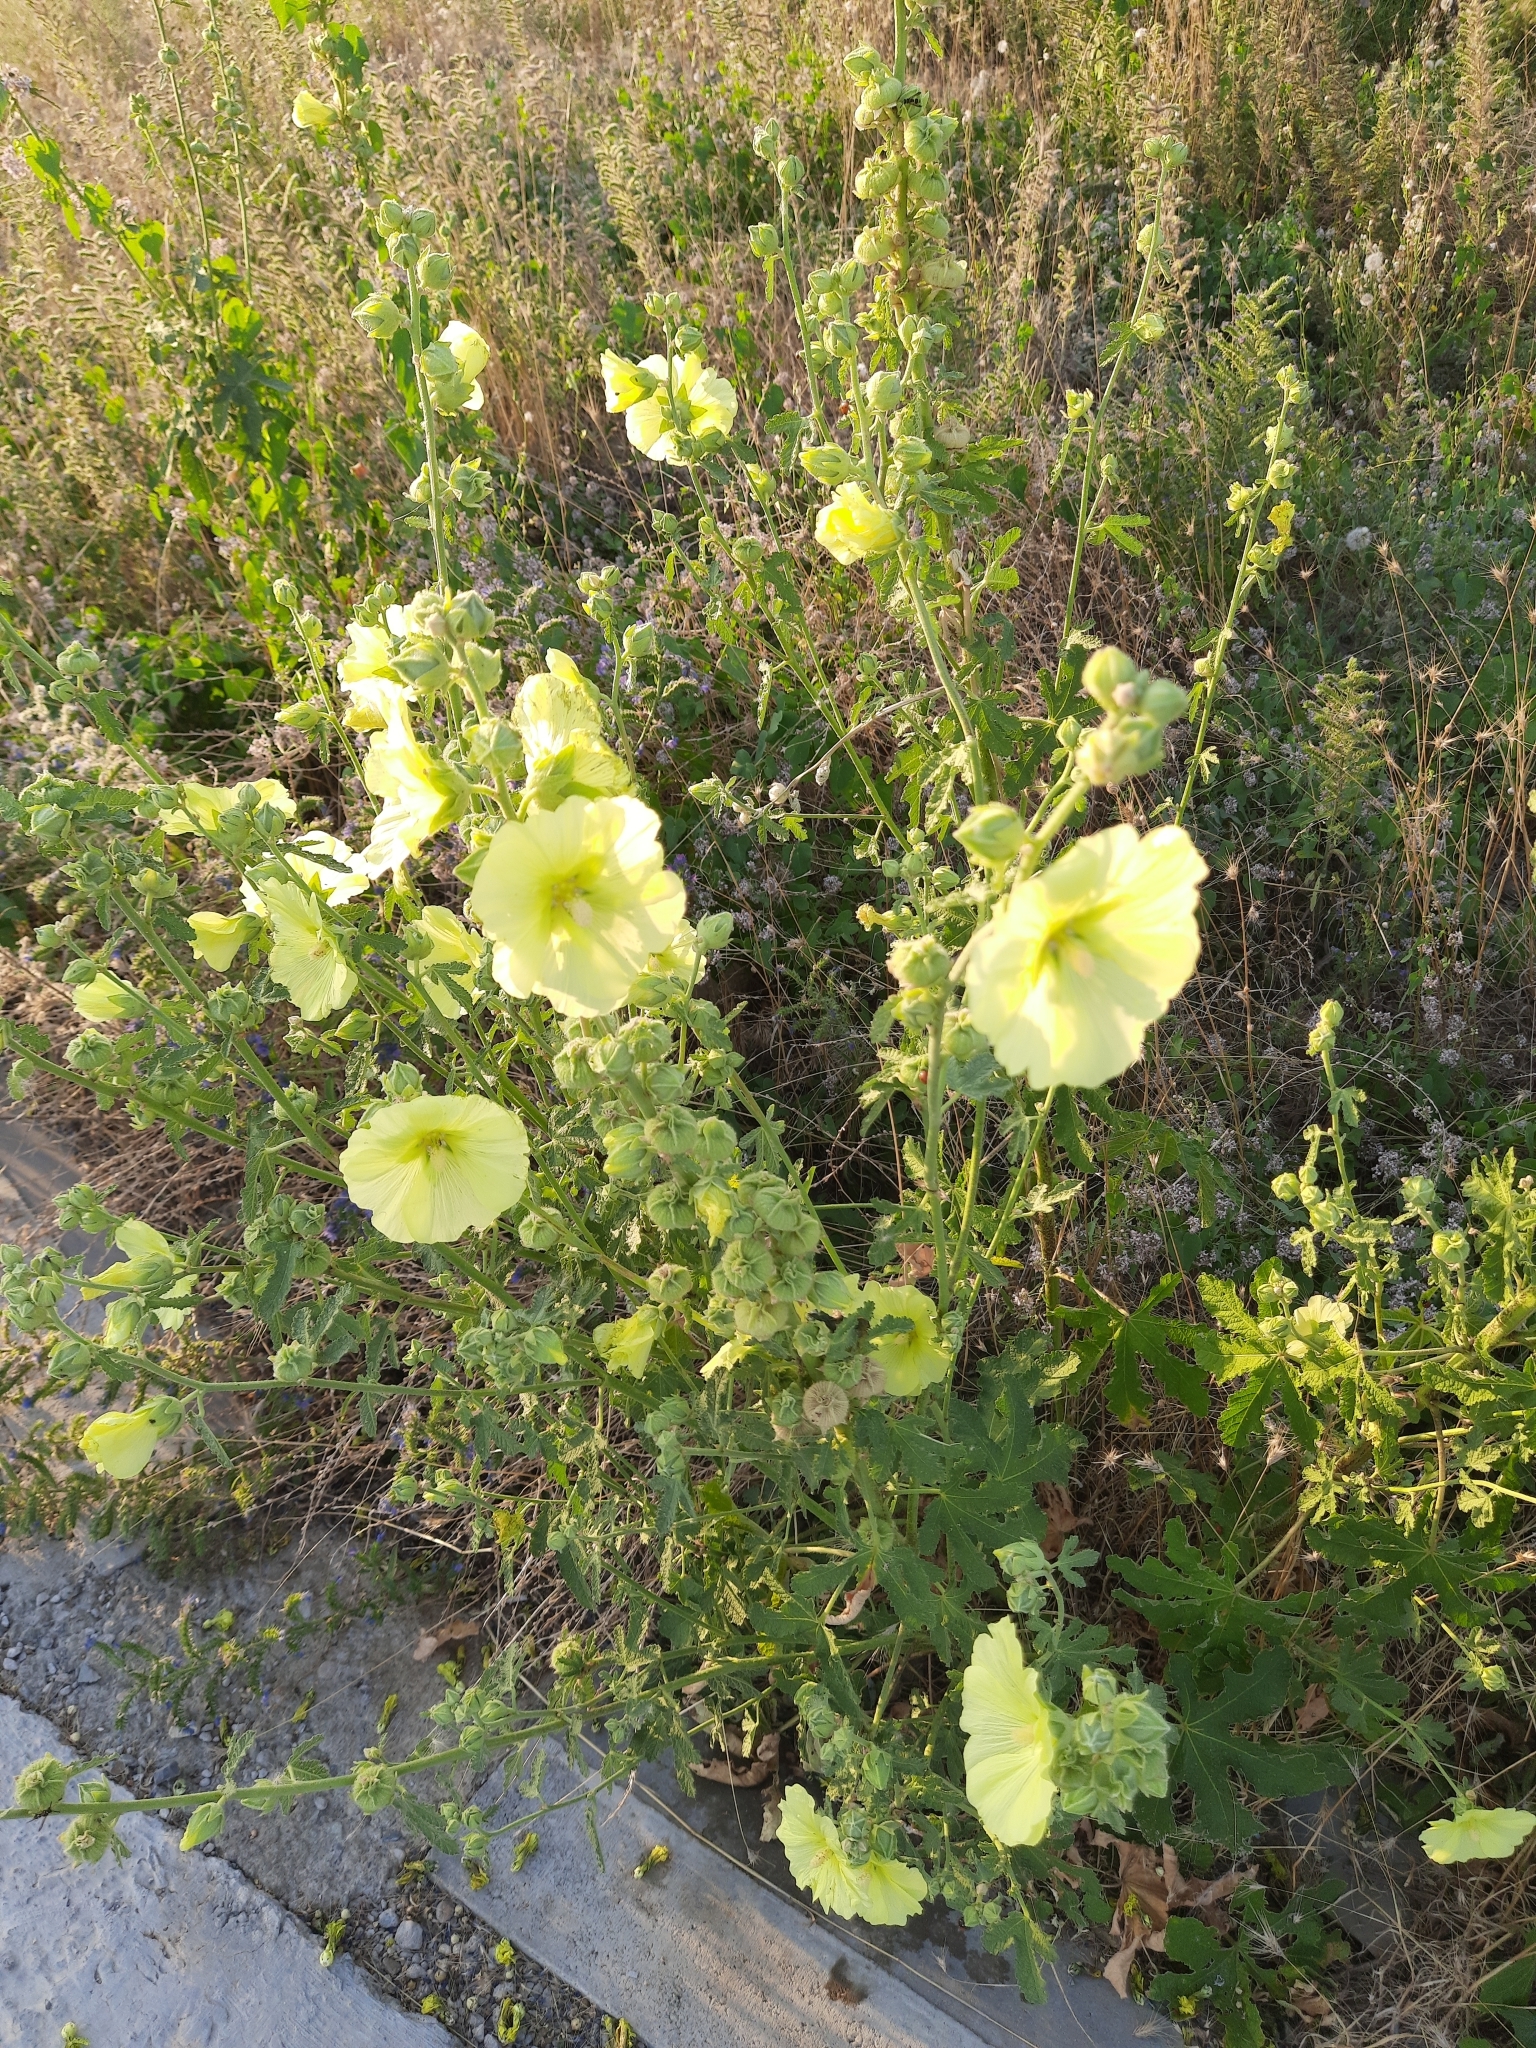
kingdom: Plantae
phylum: Tracheophyta
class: Magnoliopsida
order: Malvales
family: Malvaceae
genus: Alcea
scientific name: Alcea rugosa
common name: Russian hollyhock
